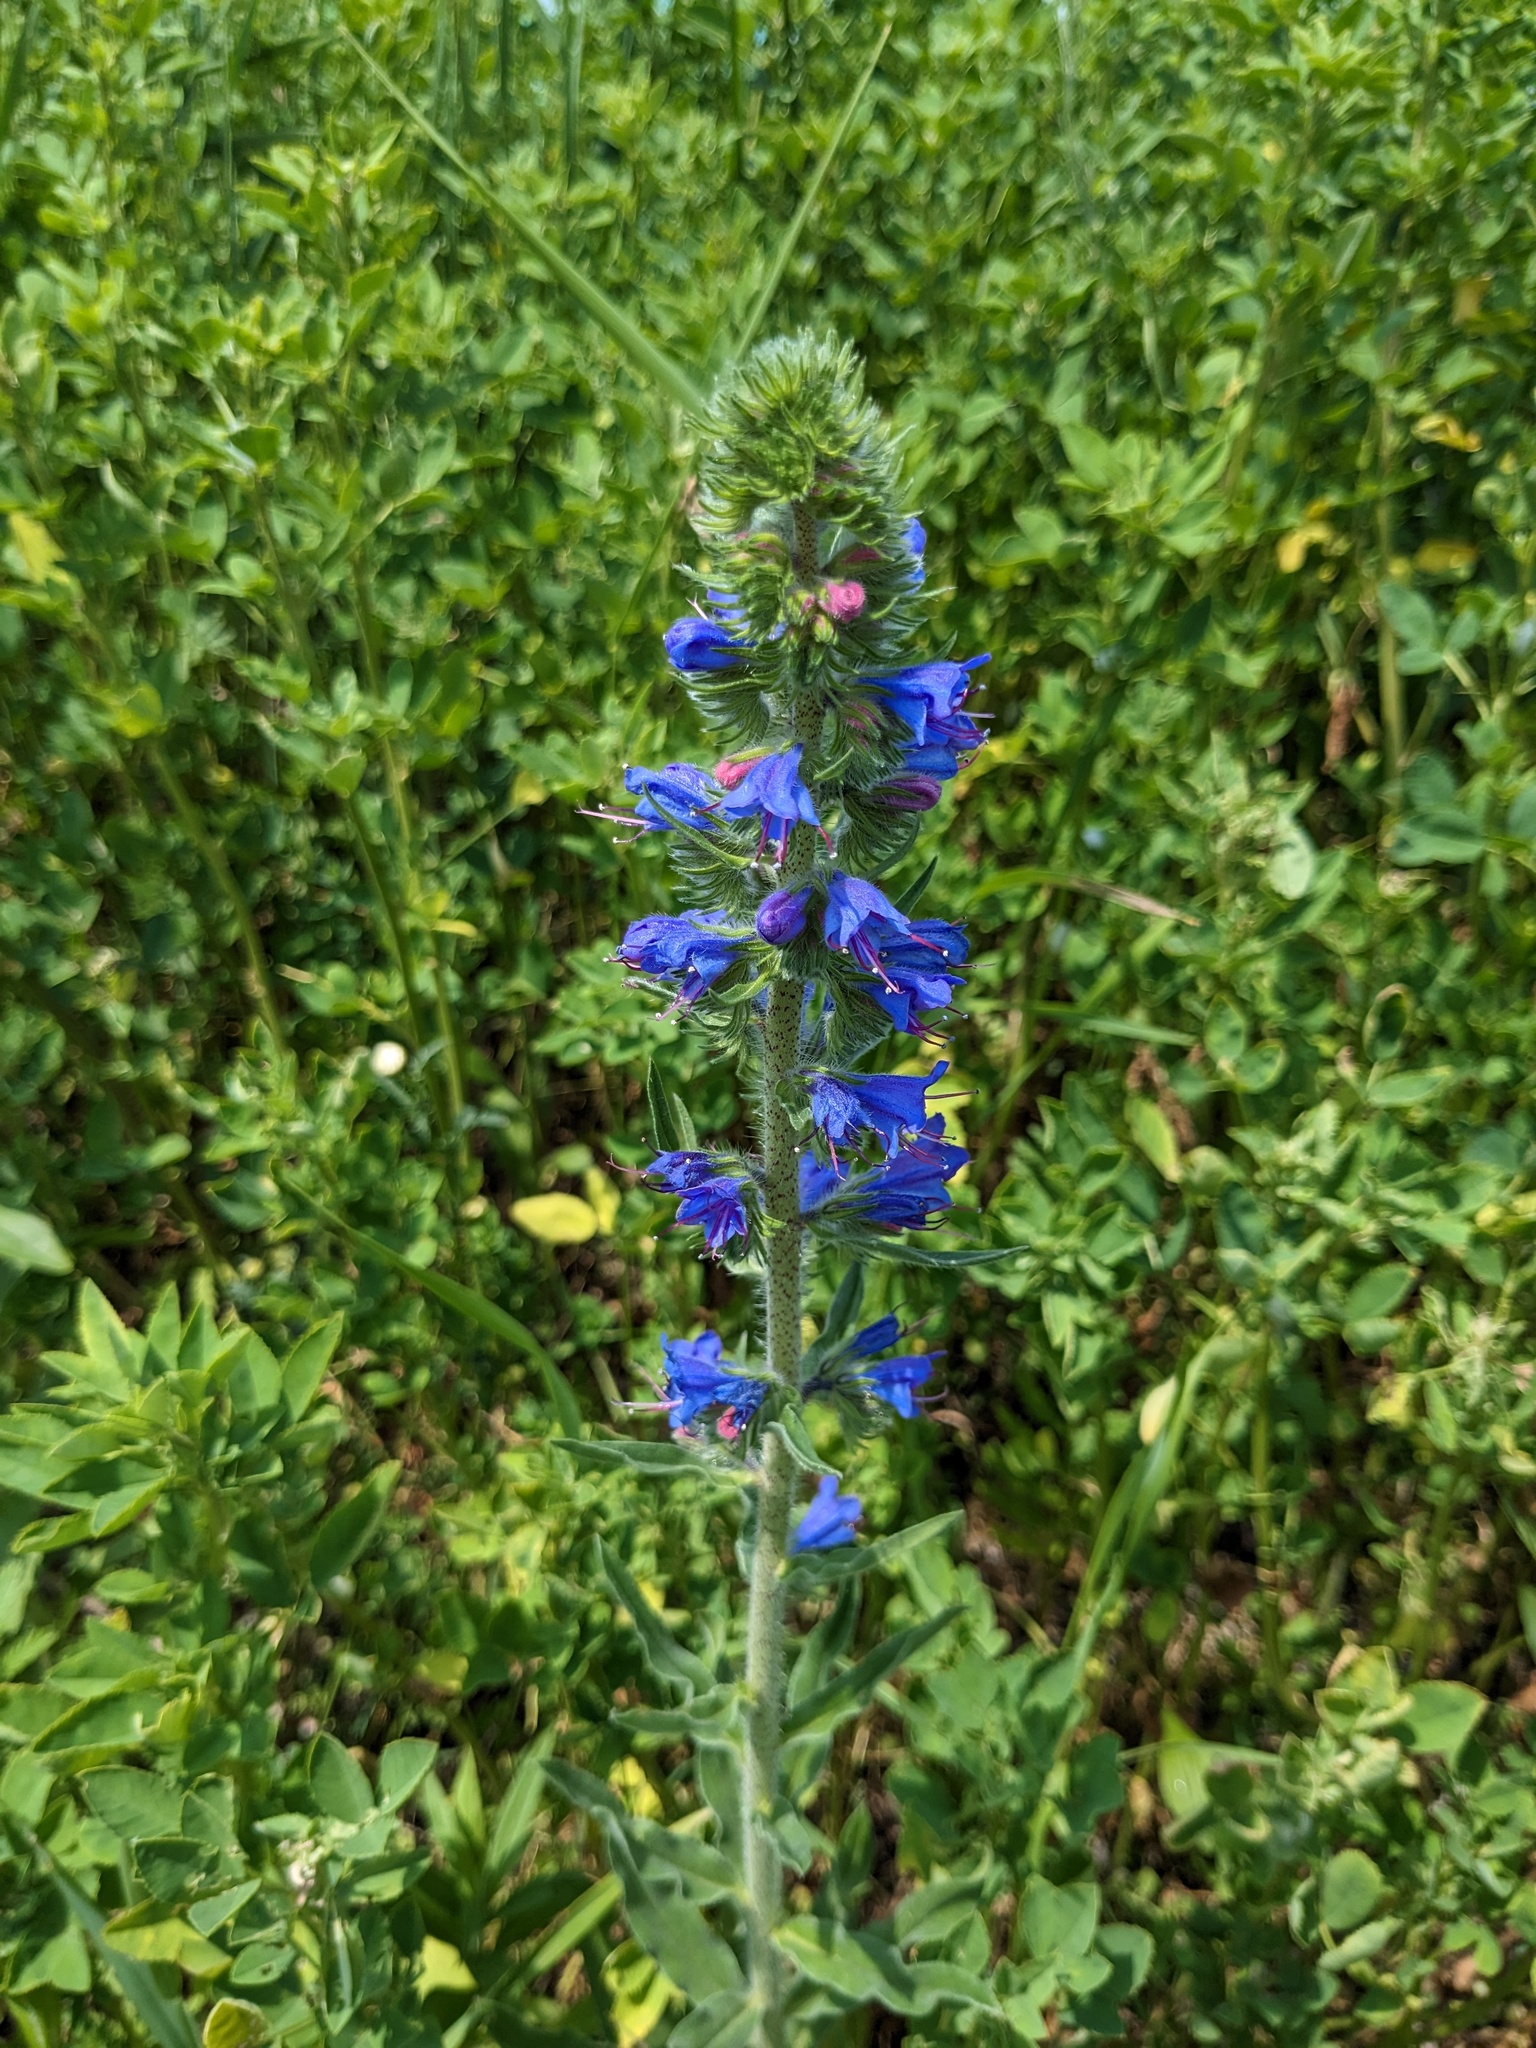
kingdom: Plantae
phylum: Tracheophyta
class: Magnoliopsida
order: Boraginales
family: Boraginaceae
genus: Echium
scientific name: Echium vulgare
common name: Common viper's bugloss
